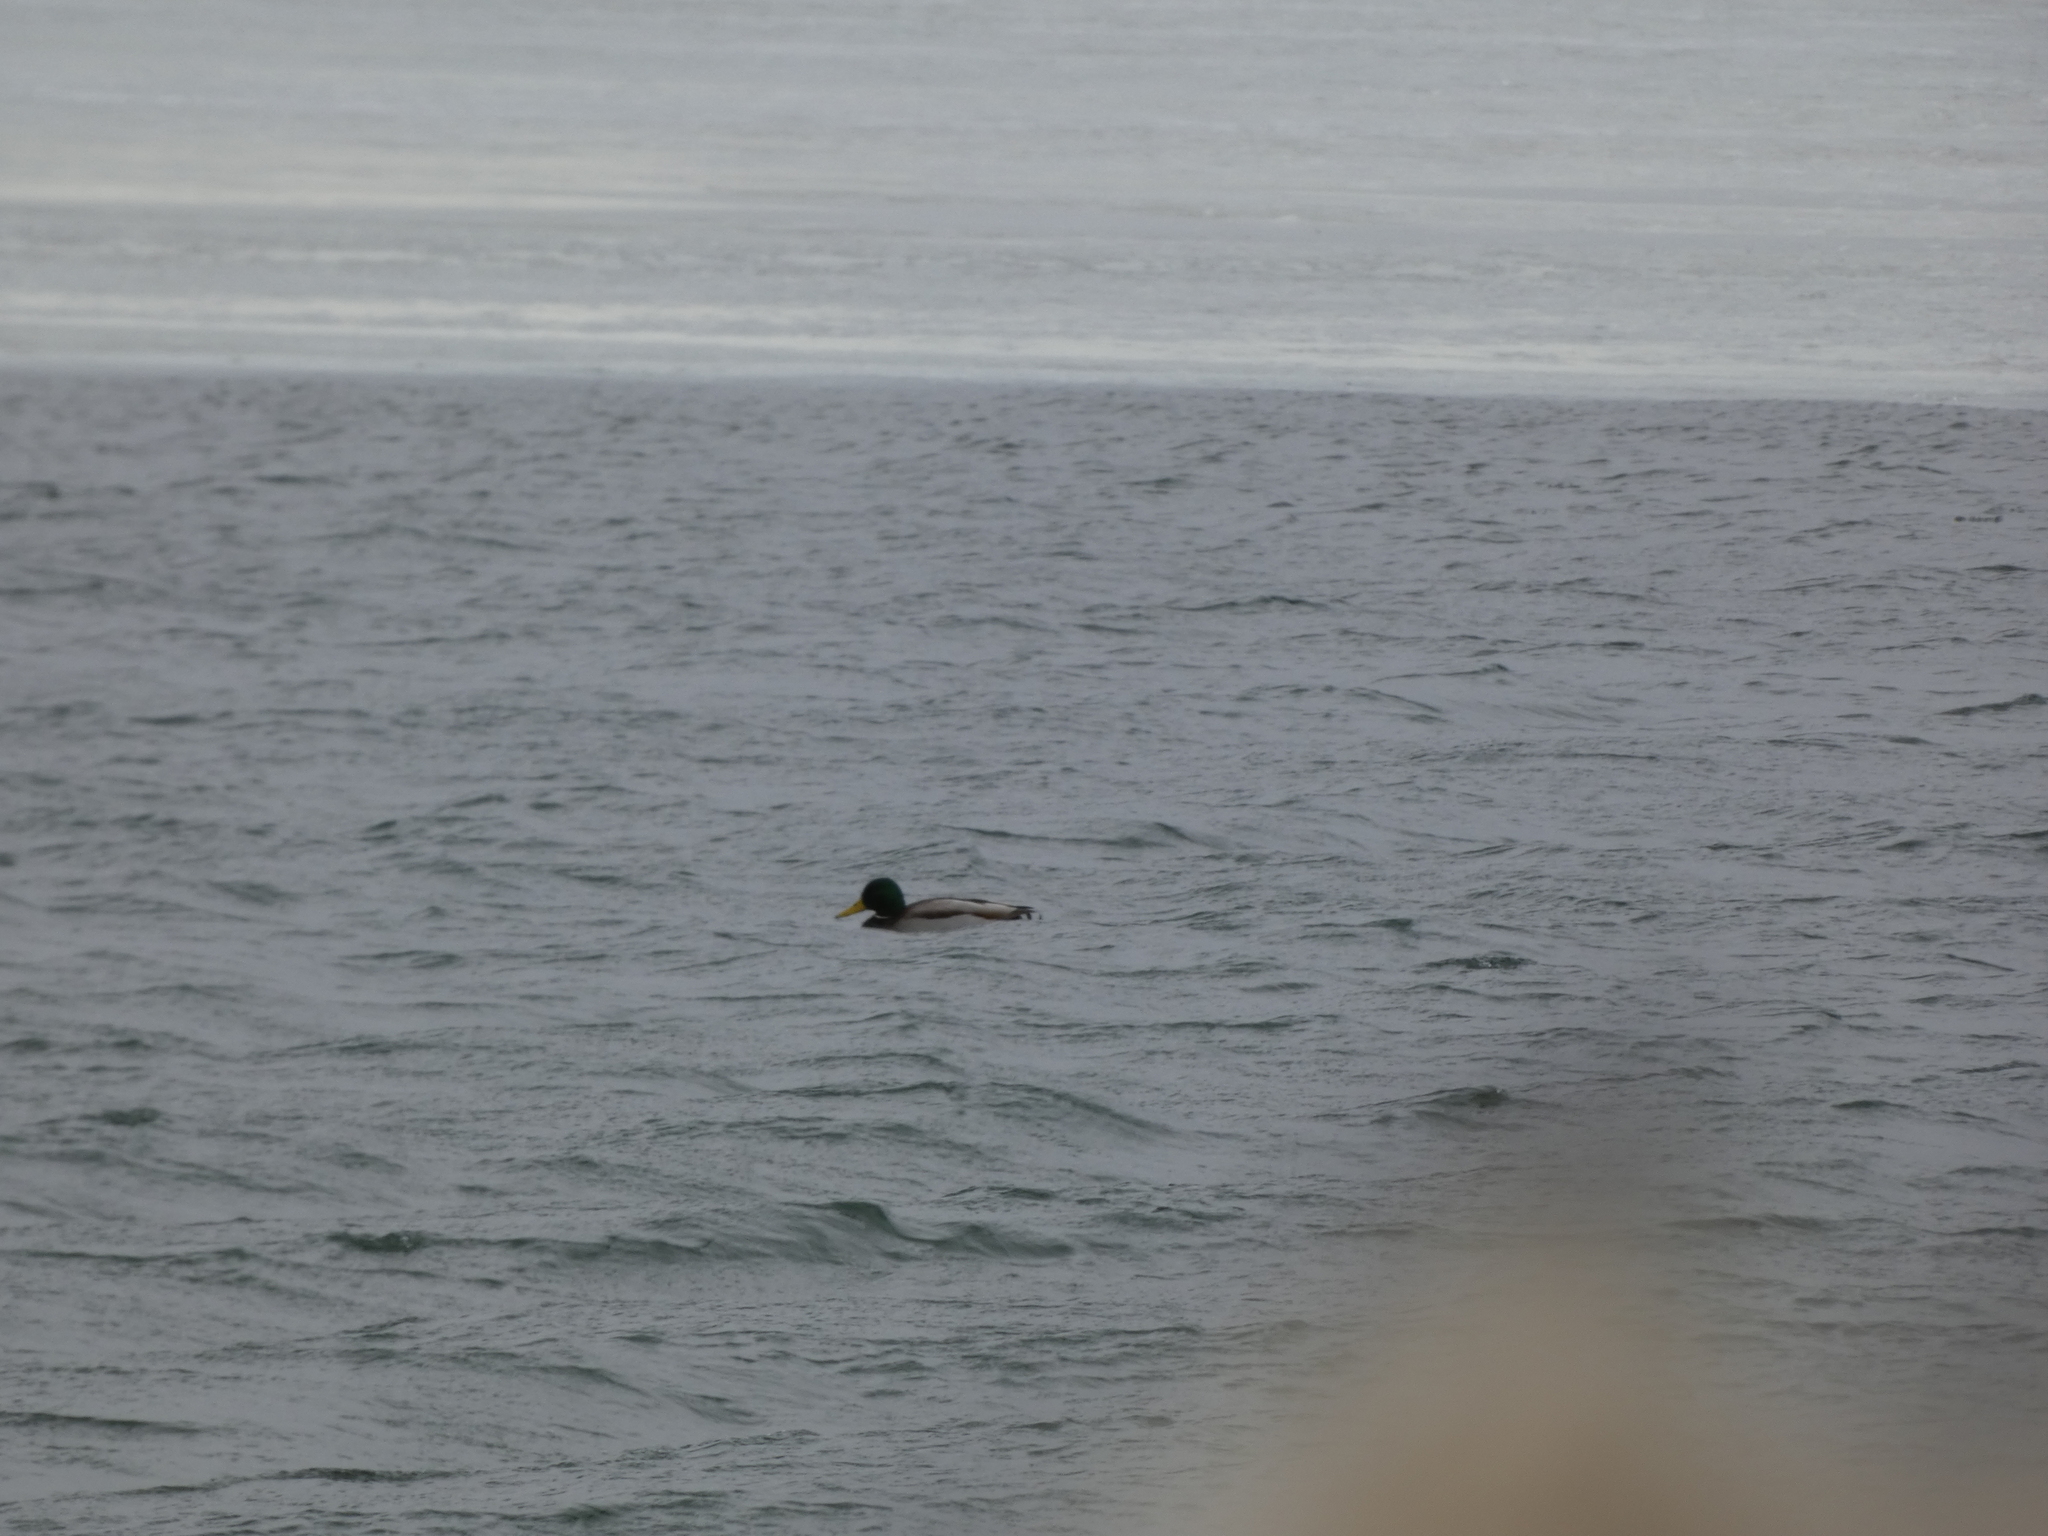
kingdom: Animalia
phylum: Chordata
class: Aves
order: Anseriformes
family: Anatidae
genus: Anas
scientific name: Anas platyrhynchos
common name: Mallard
